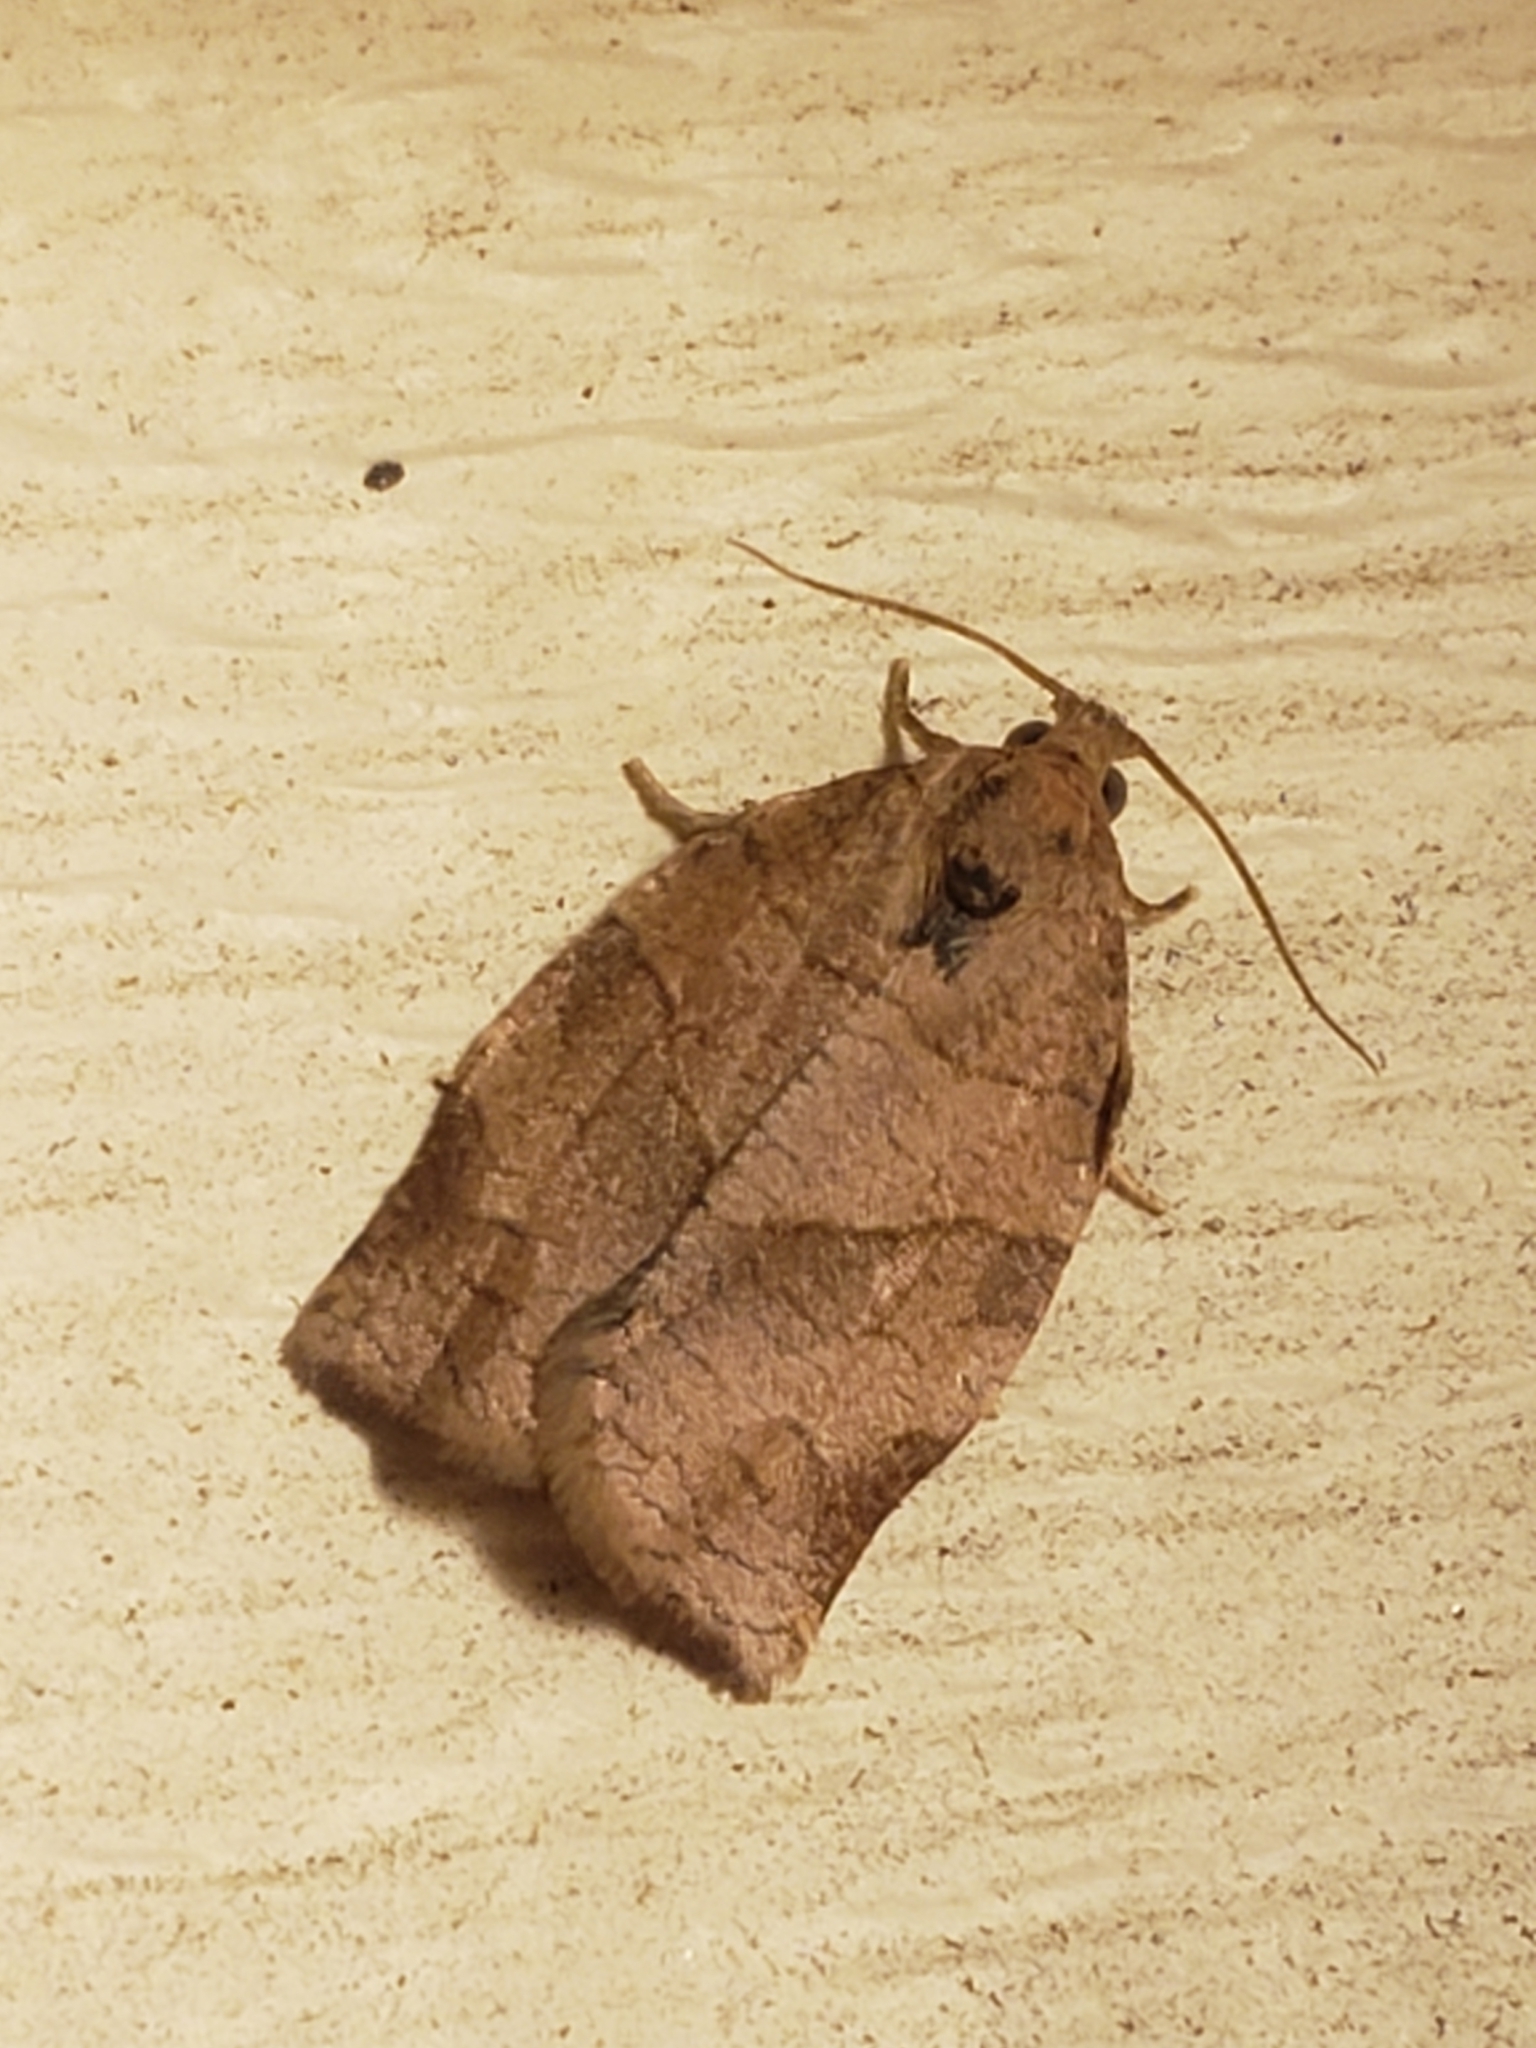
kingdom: Animalia
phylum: Arthropoda
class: Insecta
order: Lepidoptera
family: Tortricidae
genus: Choristoneura
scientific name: Choristoneura rosaceana
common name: Oblique-banded leafroller moth
